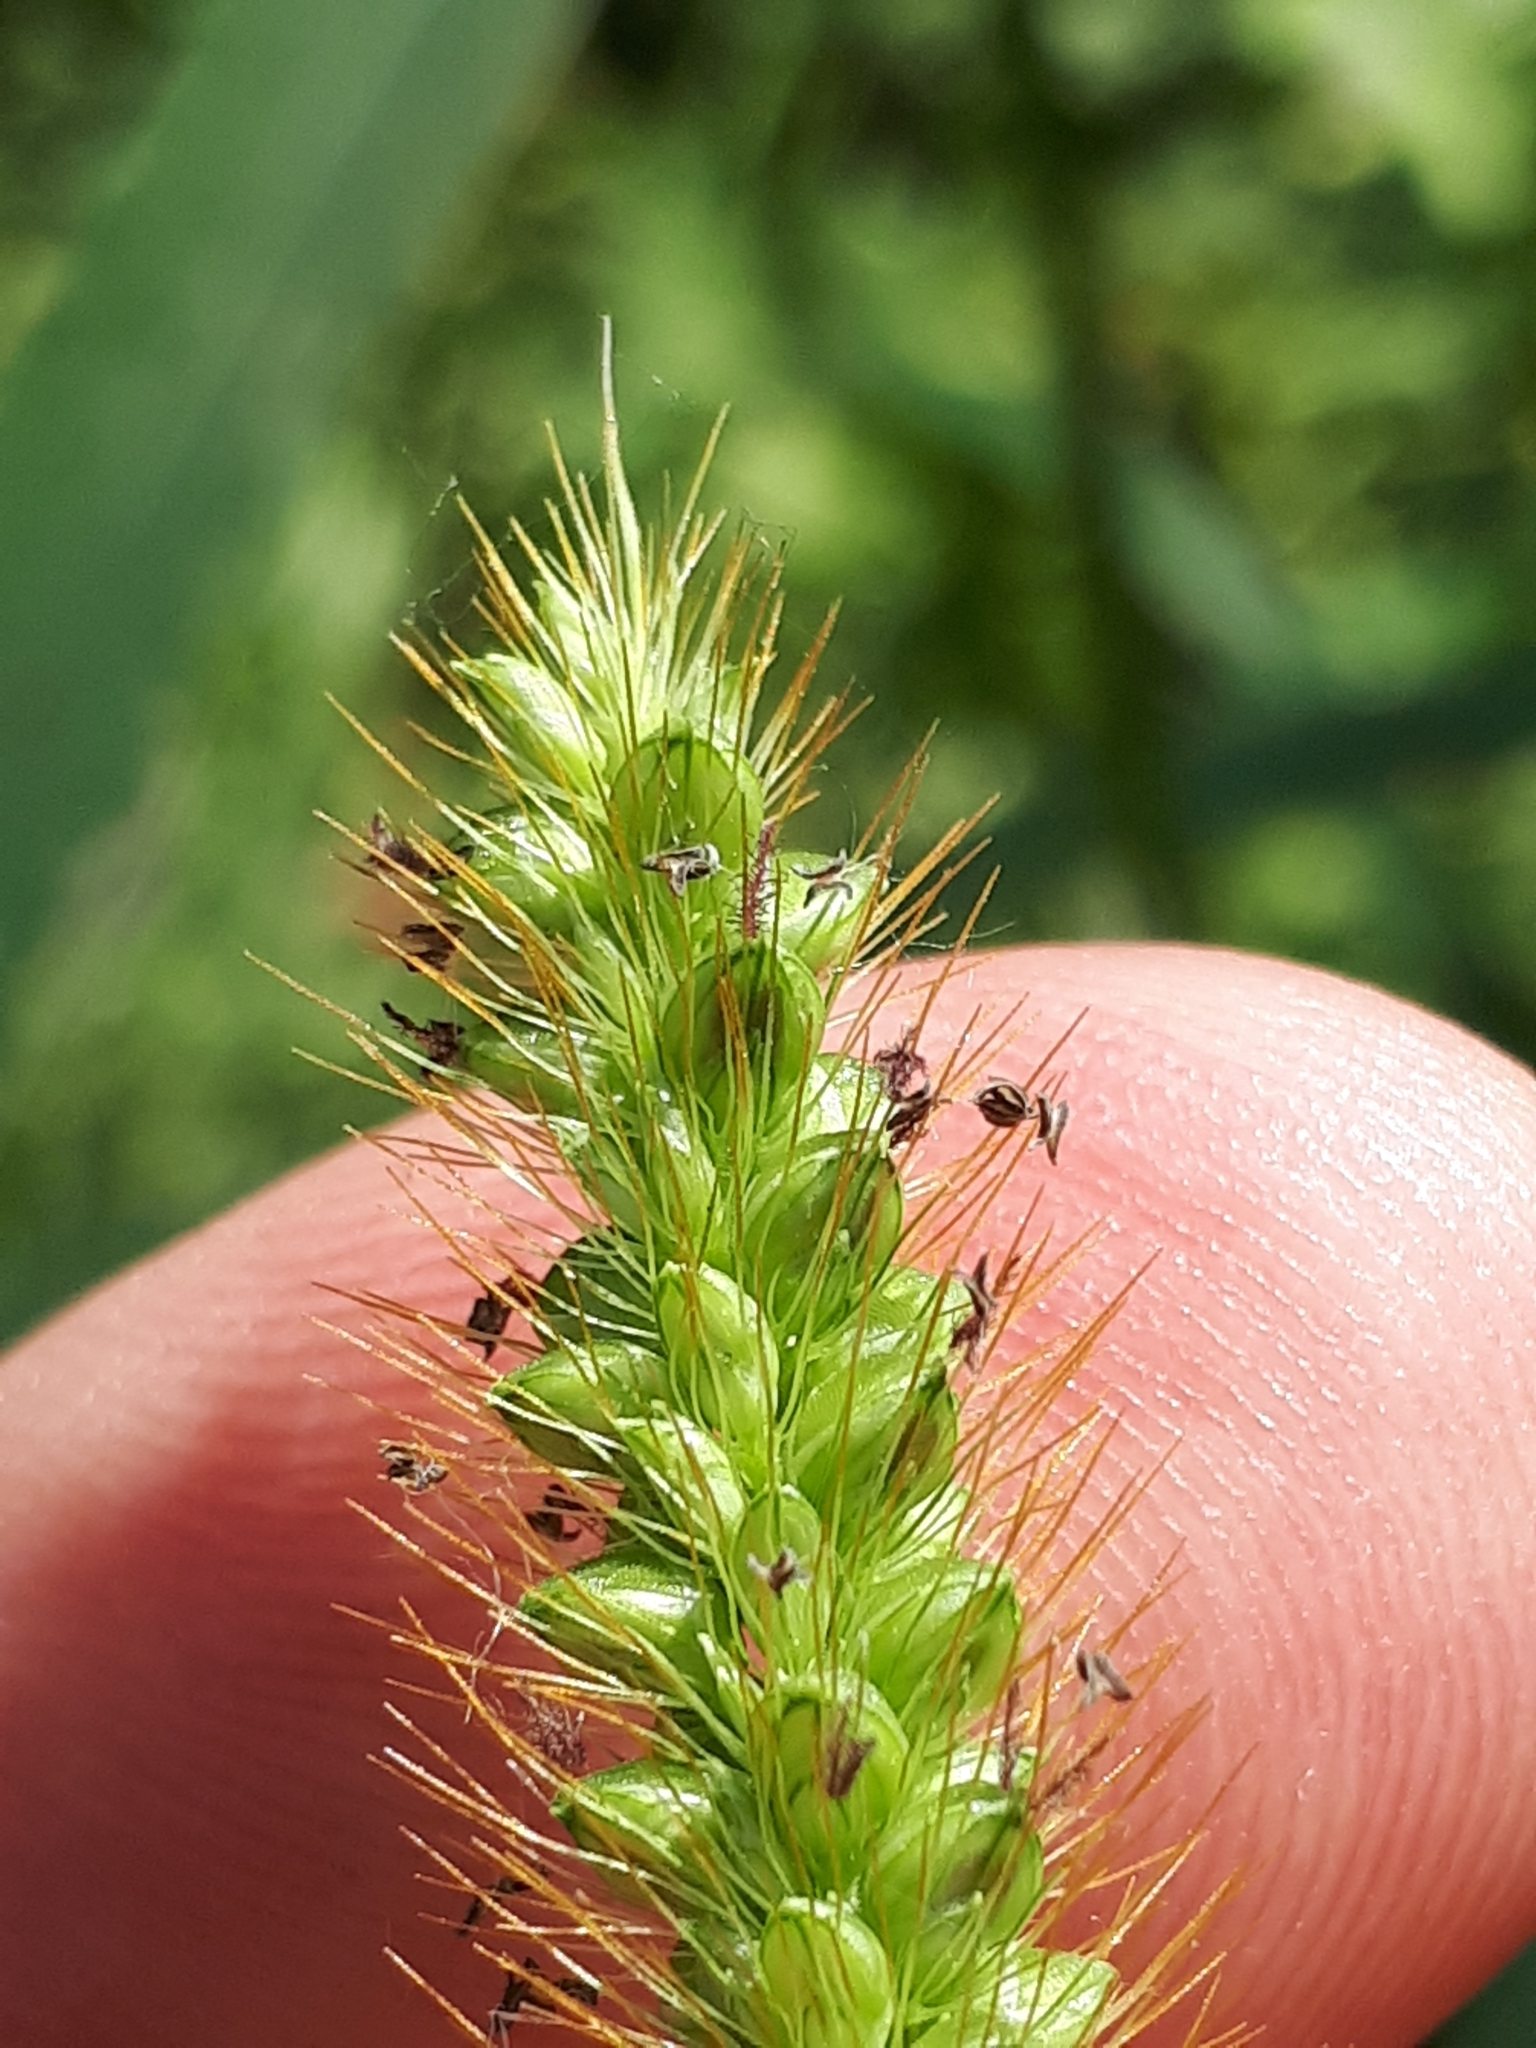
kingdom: Plantae
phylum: Tracheophyta
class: Liliopsida
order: Poales
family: Poaceae
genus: Setaria
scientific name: Setaria pumila
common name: Yellow bristle-grass
